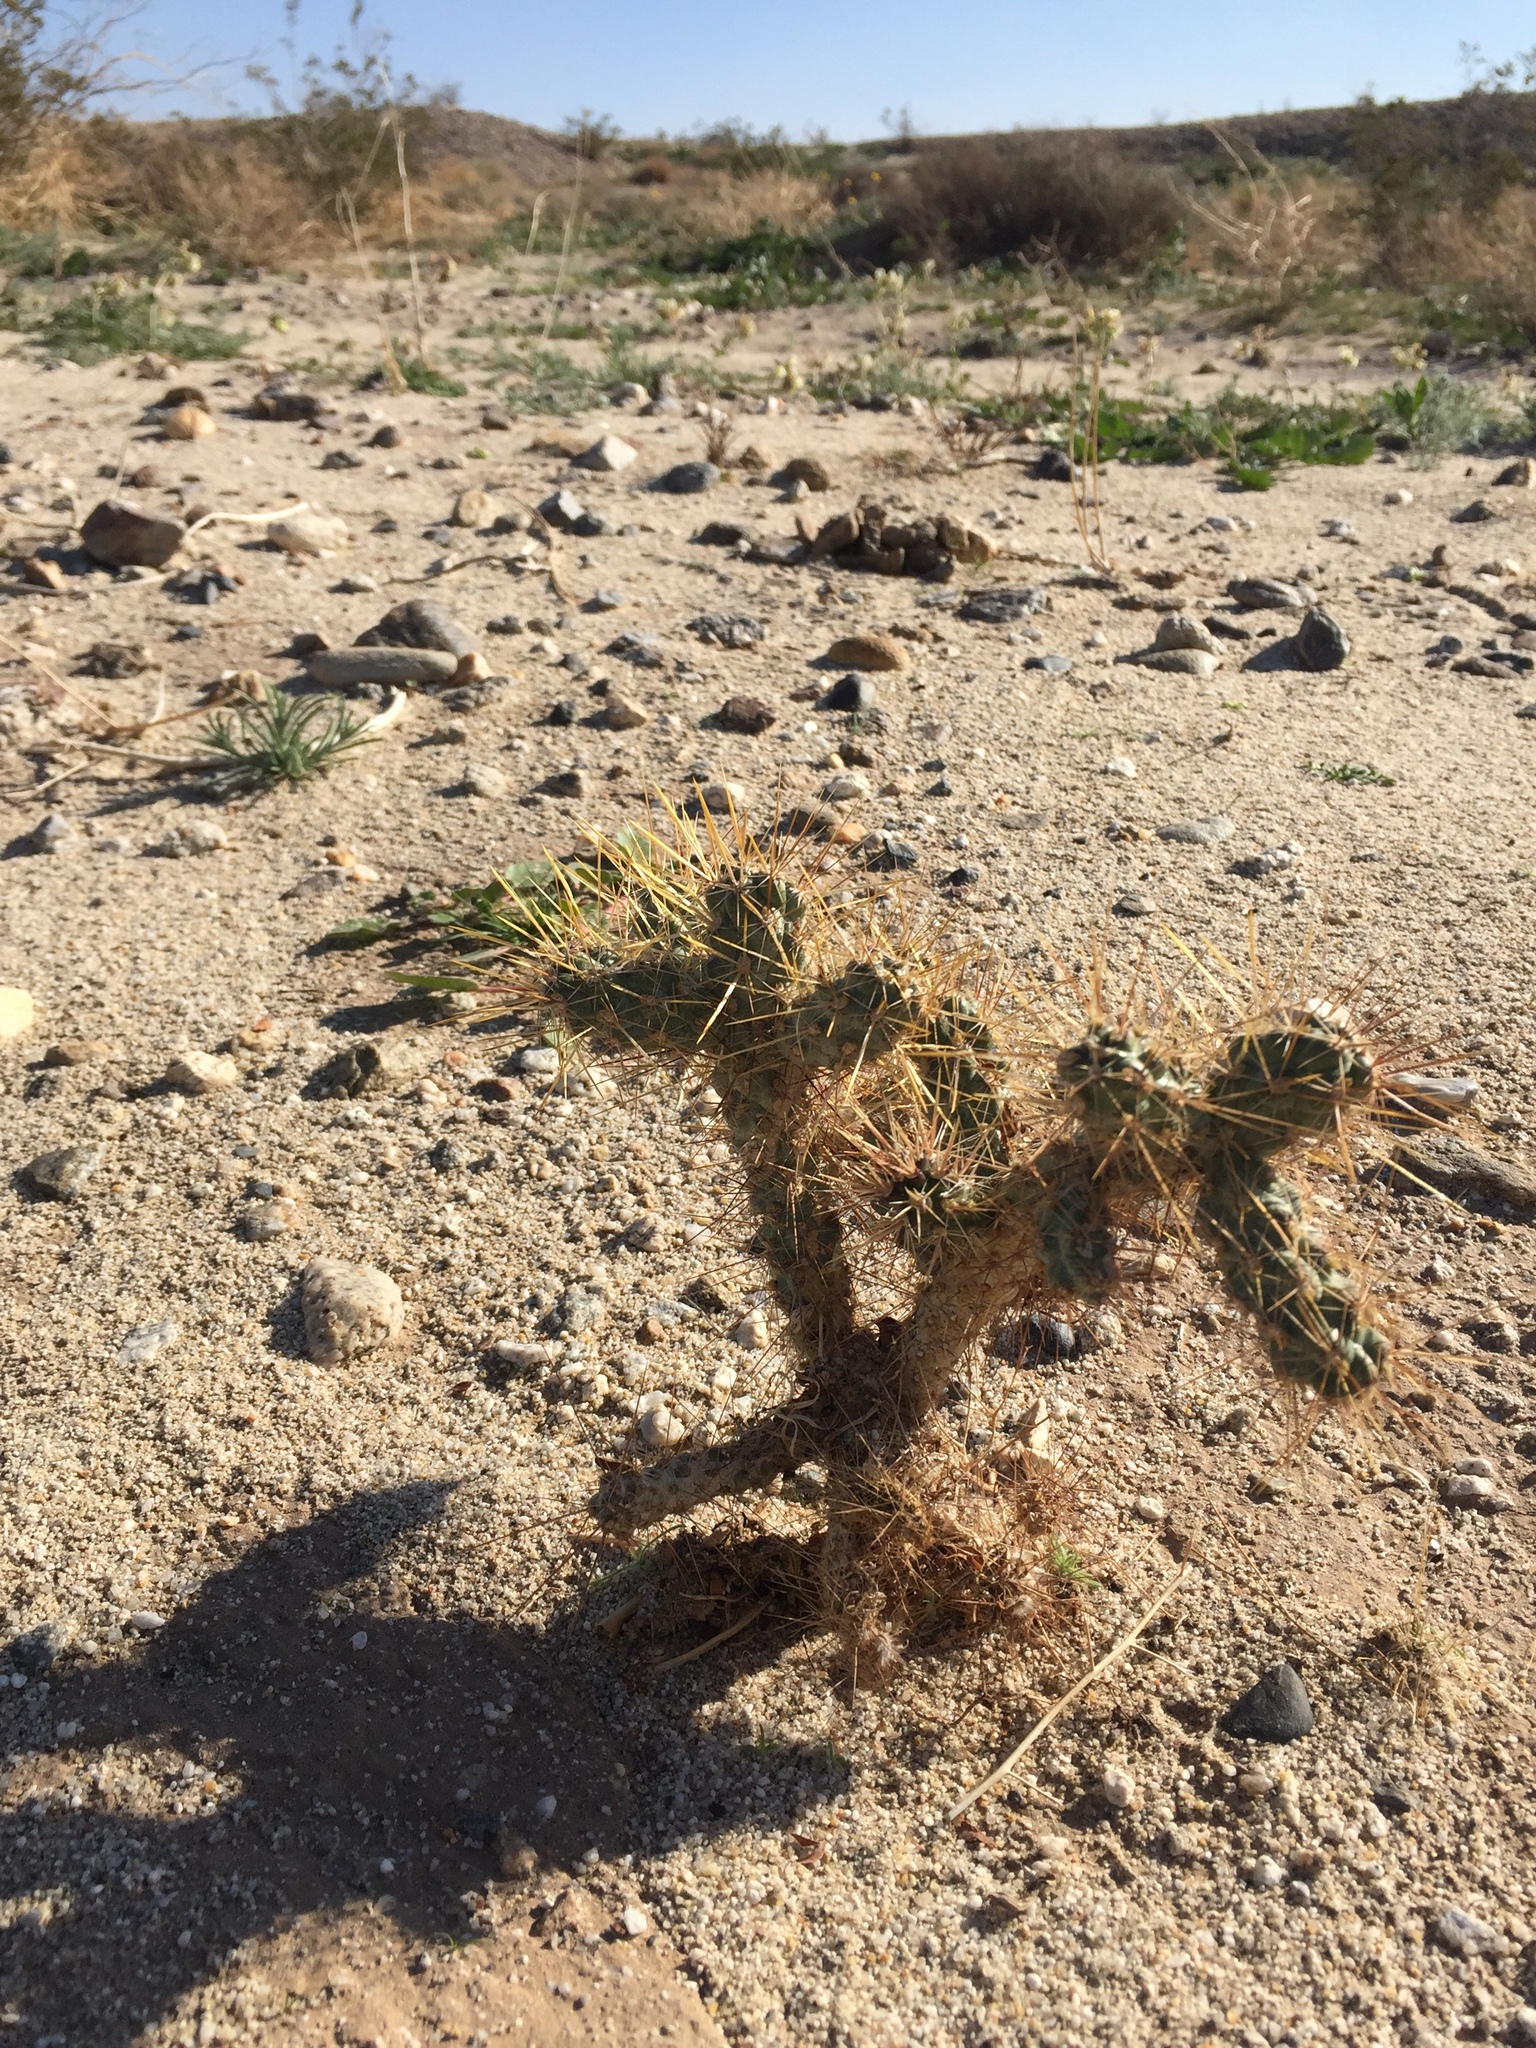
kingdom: Plantae
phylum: Tracheophyta
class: Magnoliopsida
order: Caryophyllales
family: Cactaceae
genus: Cylindropuntia
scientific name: Cylindropuntia echinocarpa
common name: Ground cholla
